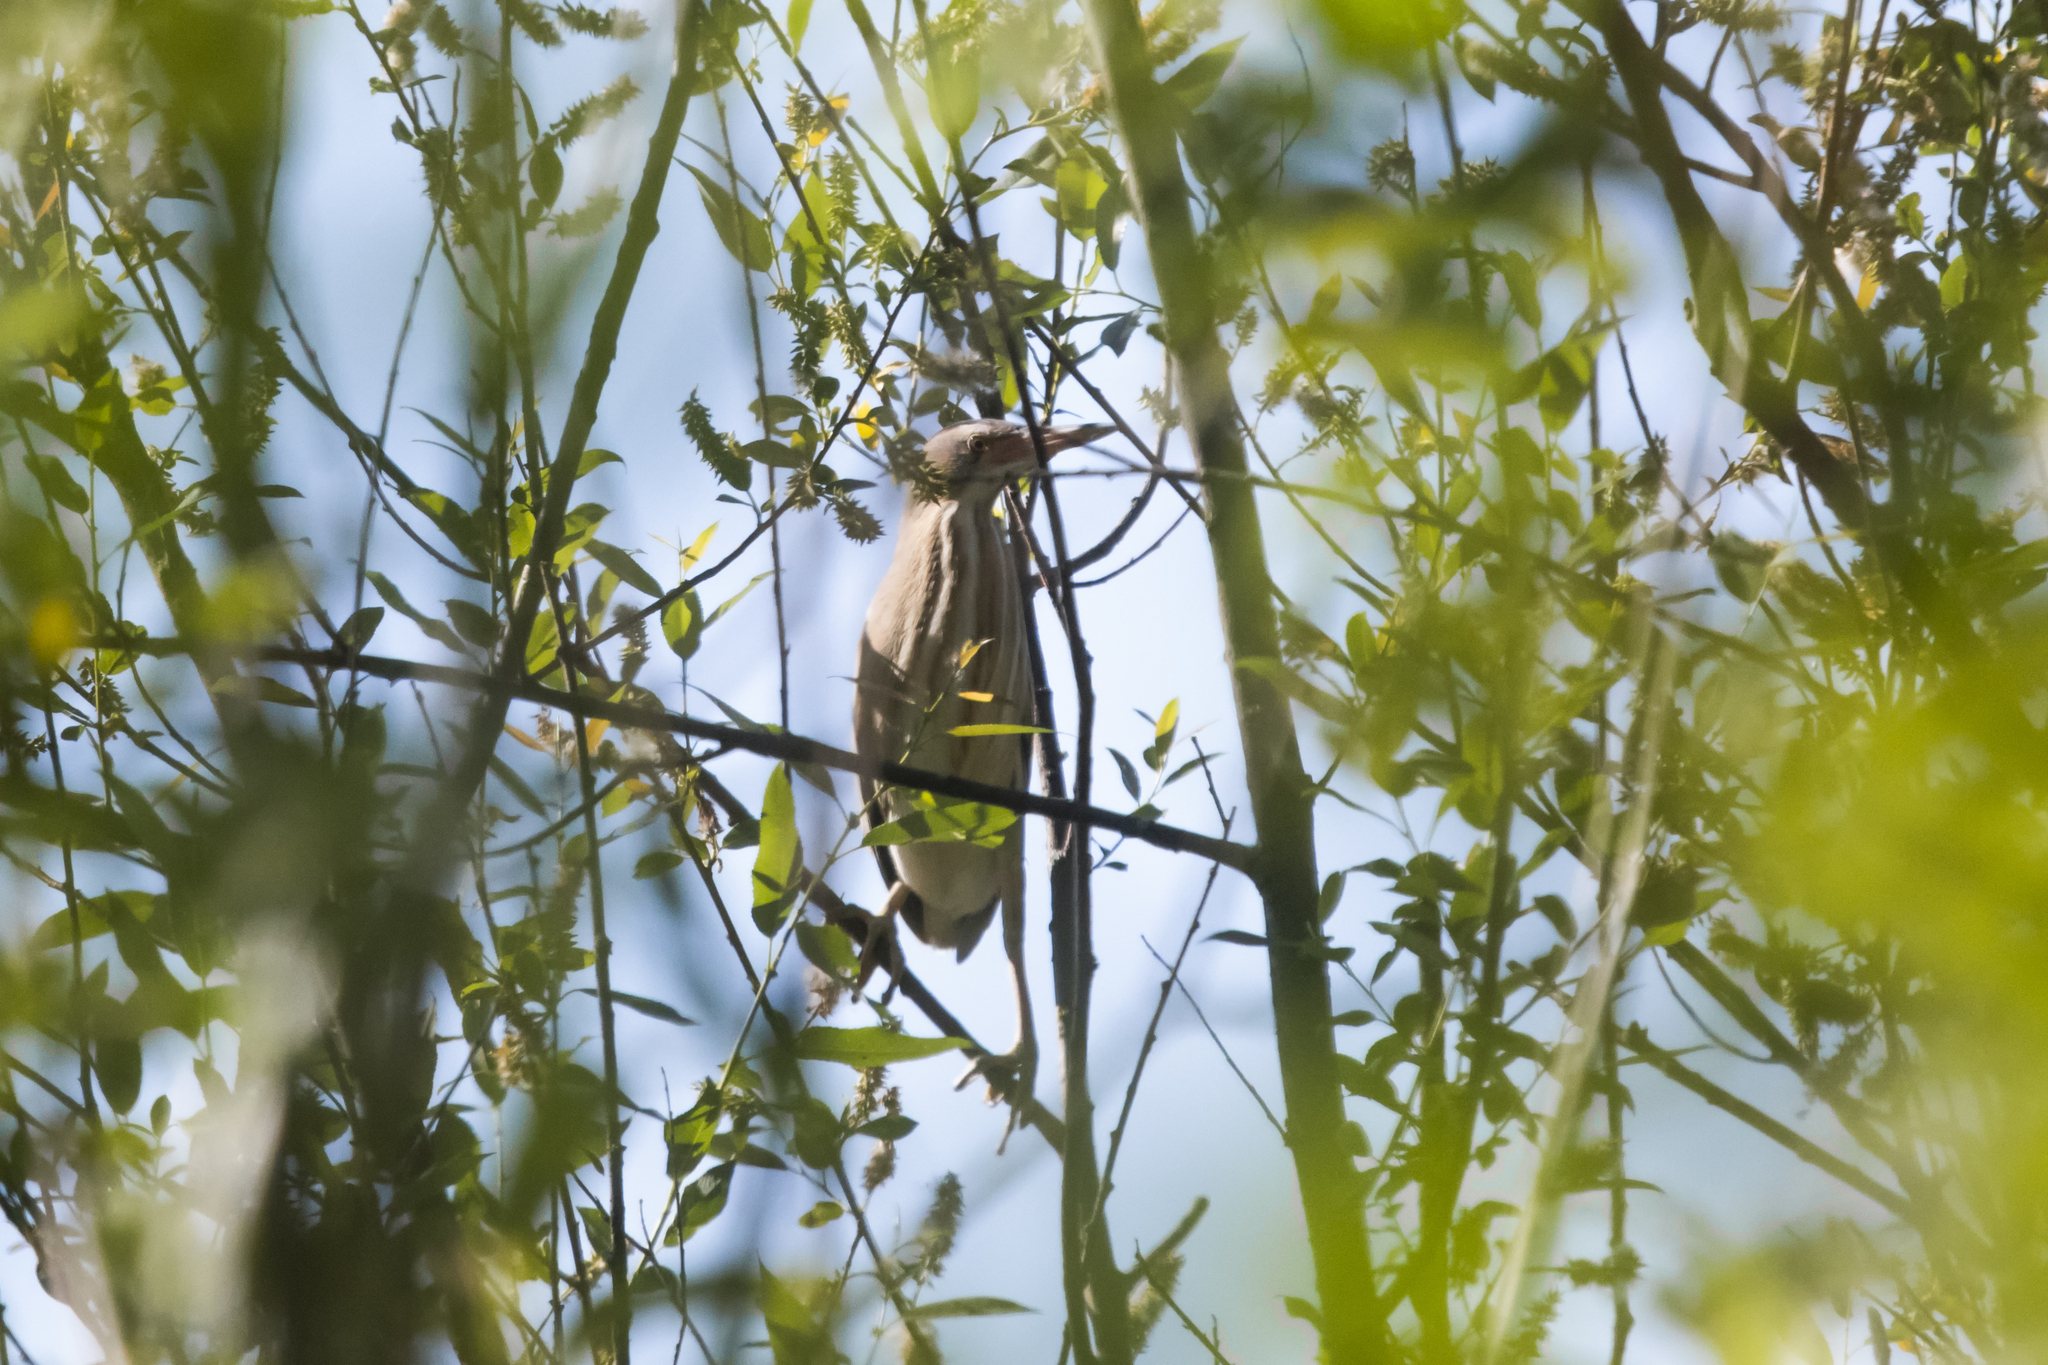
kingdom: Animalia
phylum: Chordata
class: Aves
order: Pelecaniformes
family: Ardeidae
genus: Ixobrychus
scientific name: Ixobrychus minutus
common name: Little bittern
